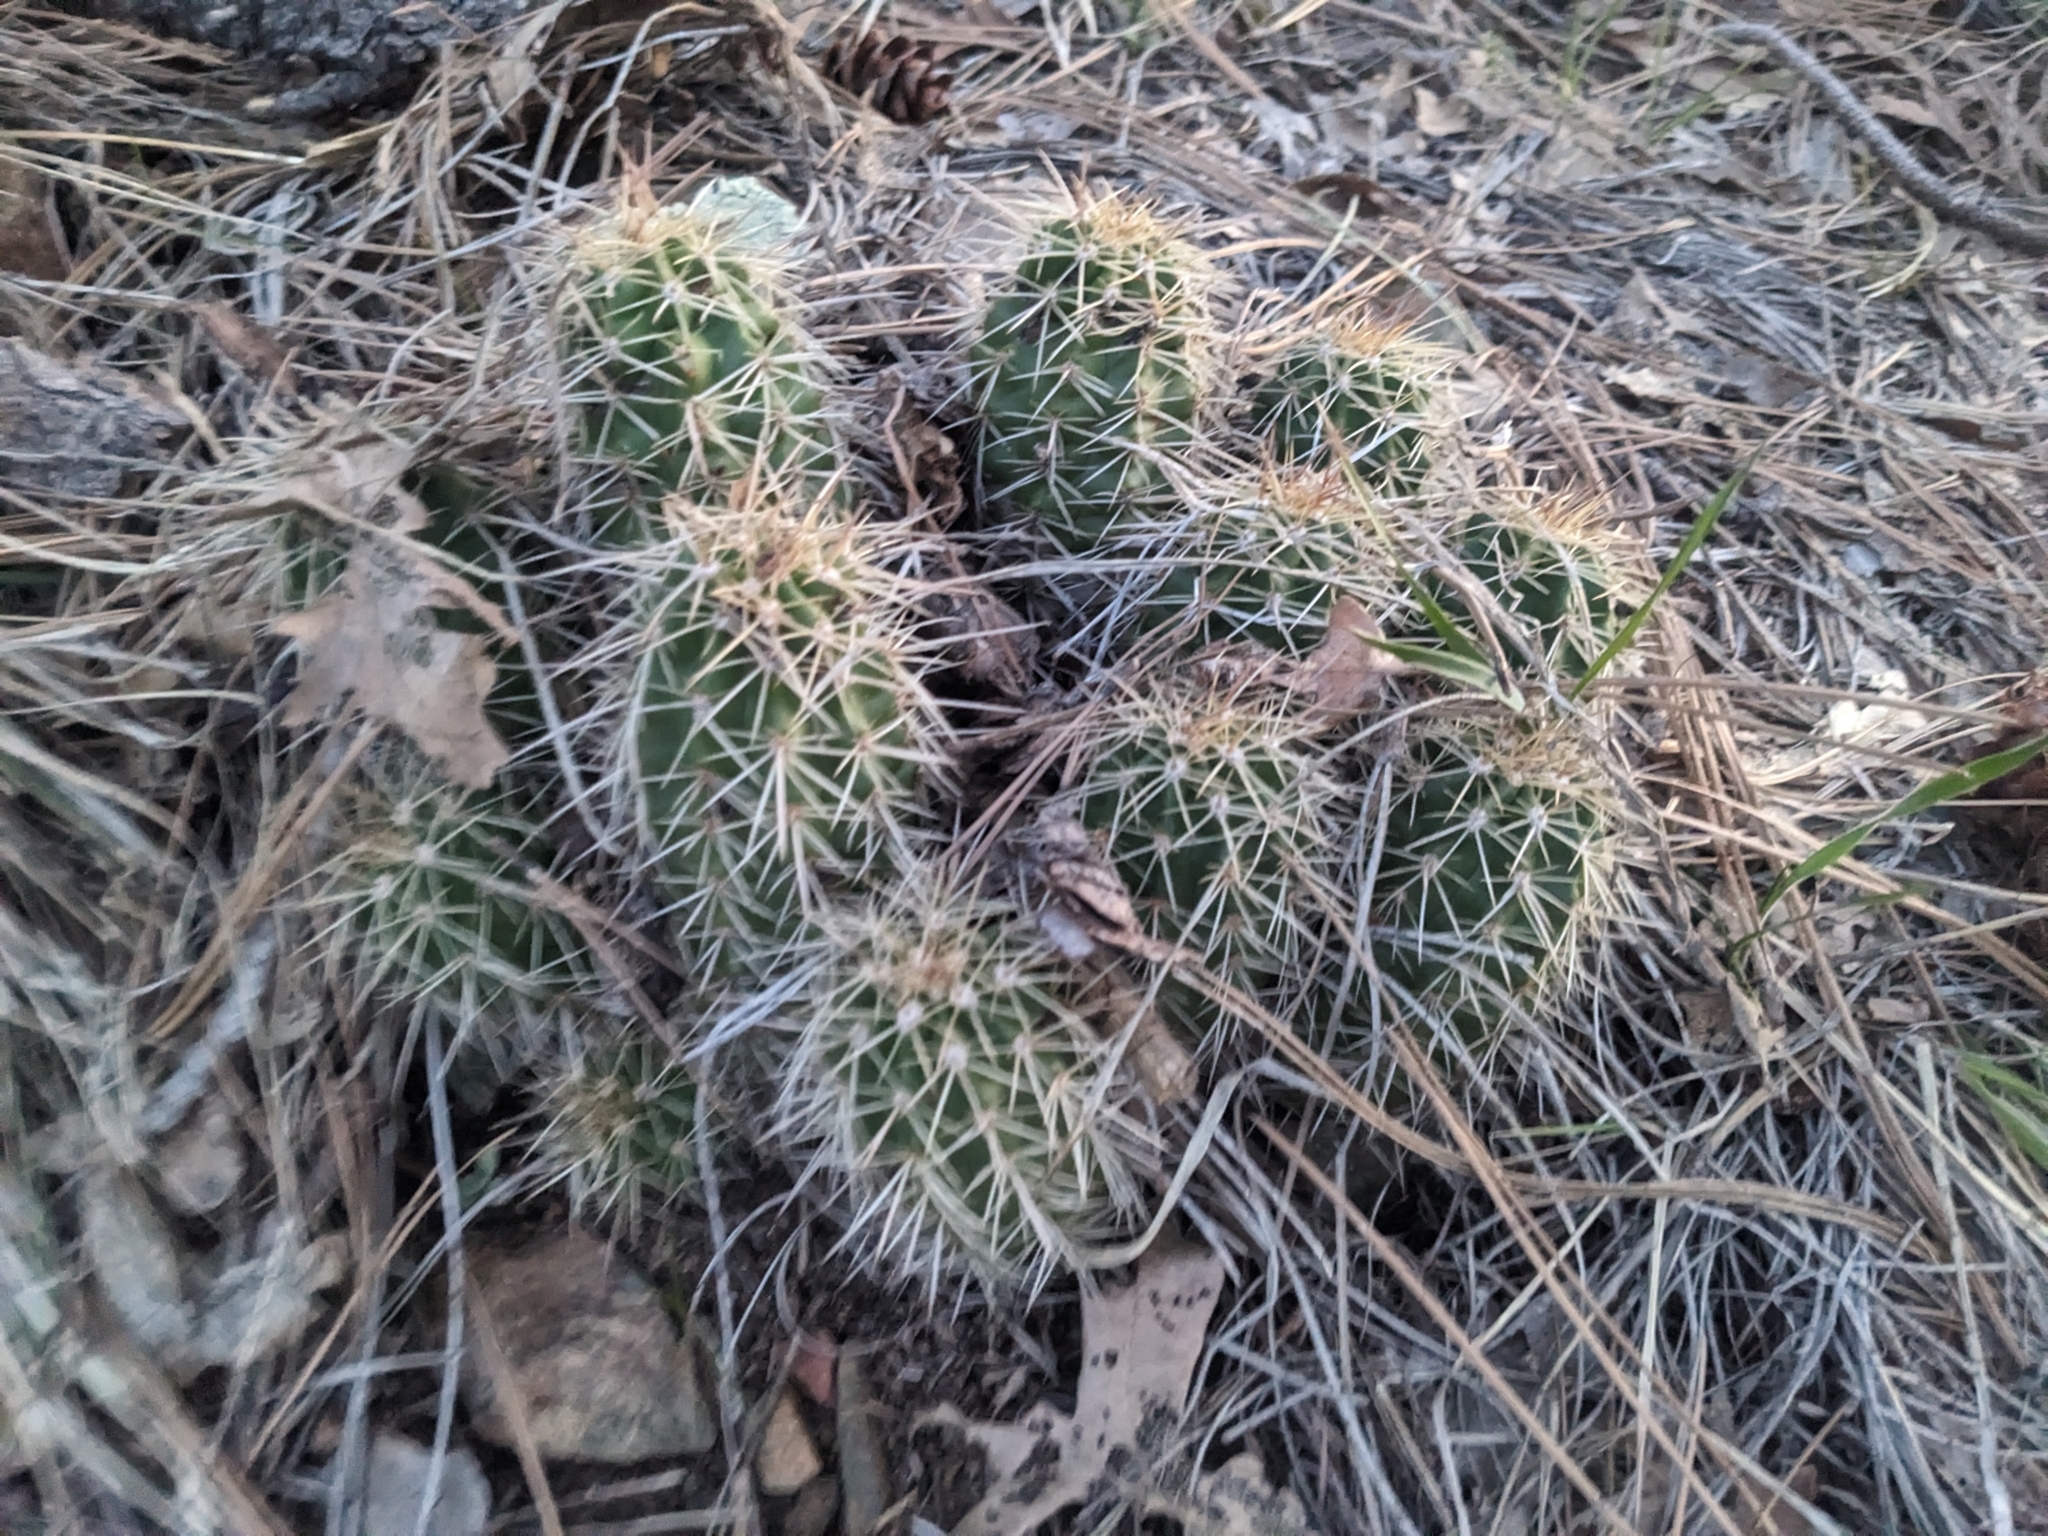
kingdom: Plantae
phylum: Tracheophyta
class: Magnoliopsida
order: Caryophyllales
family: Cactaceae
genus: Echinocereus
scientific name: Echinocereus bakeri
